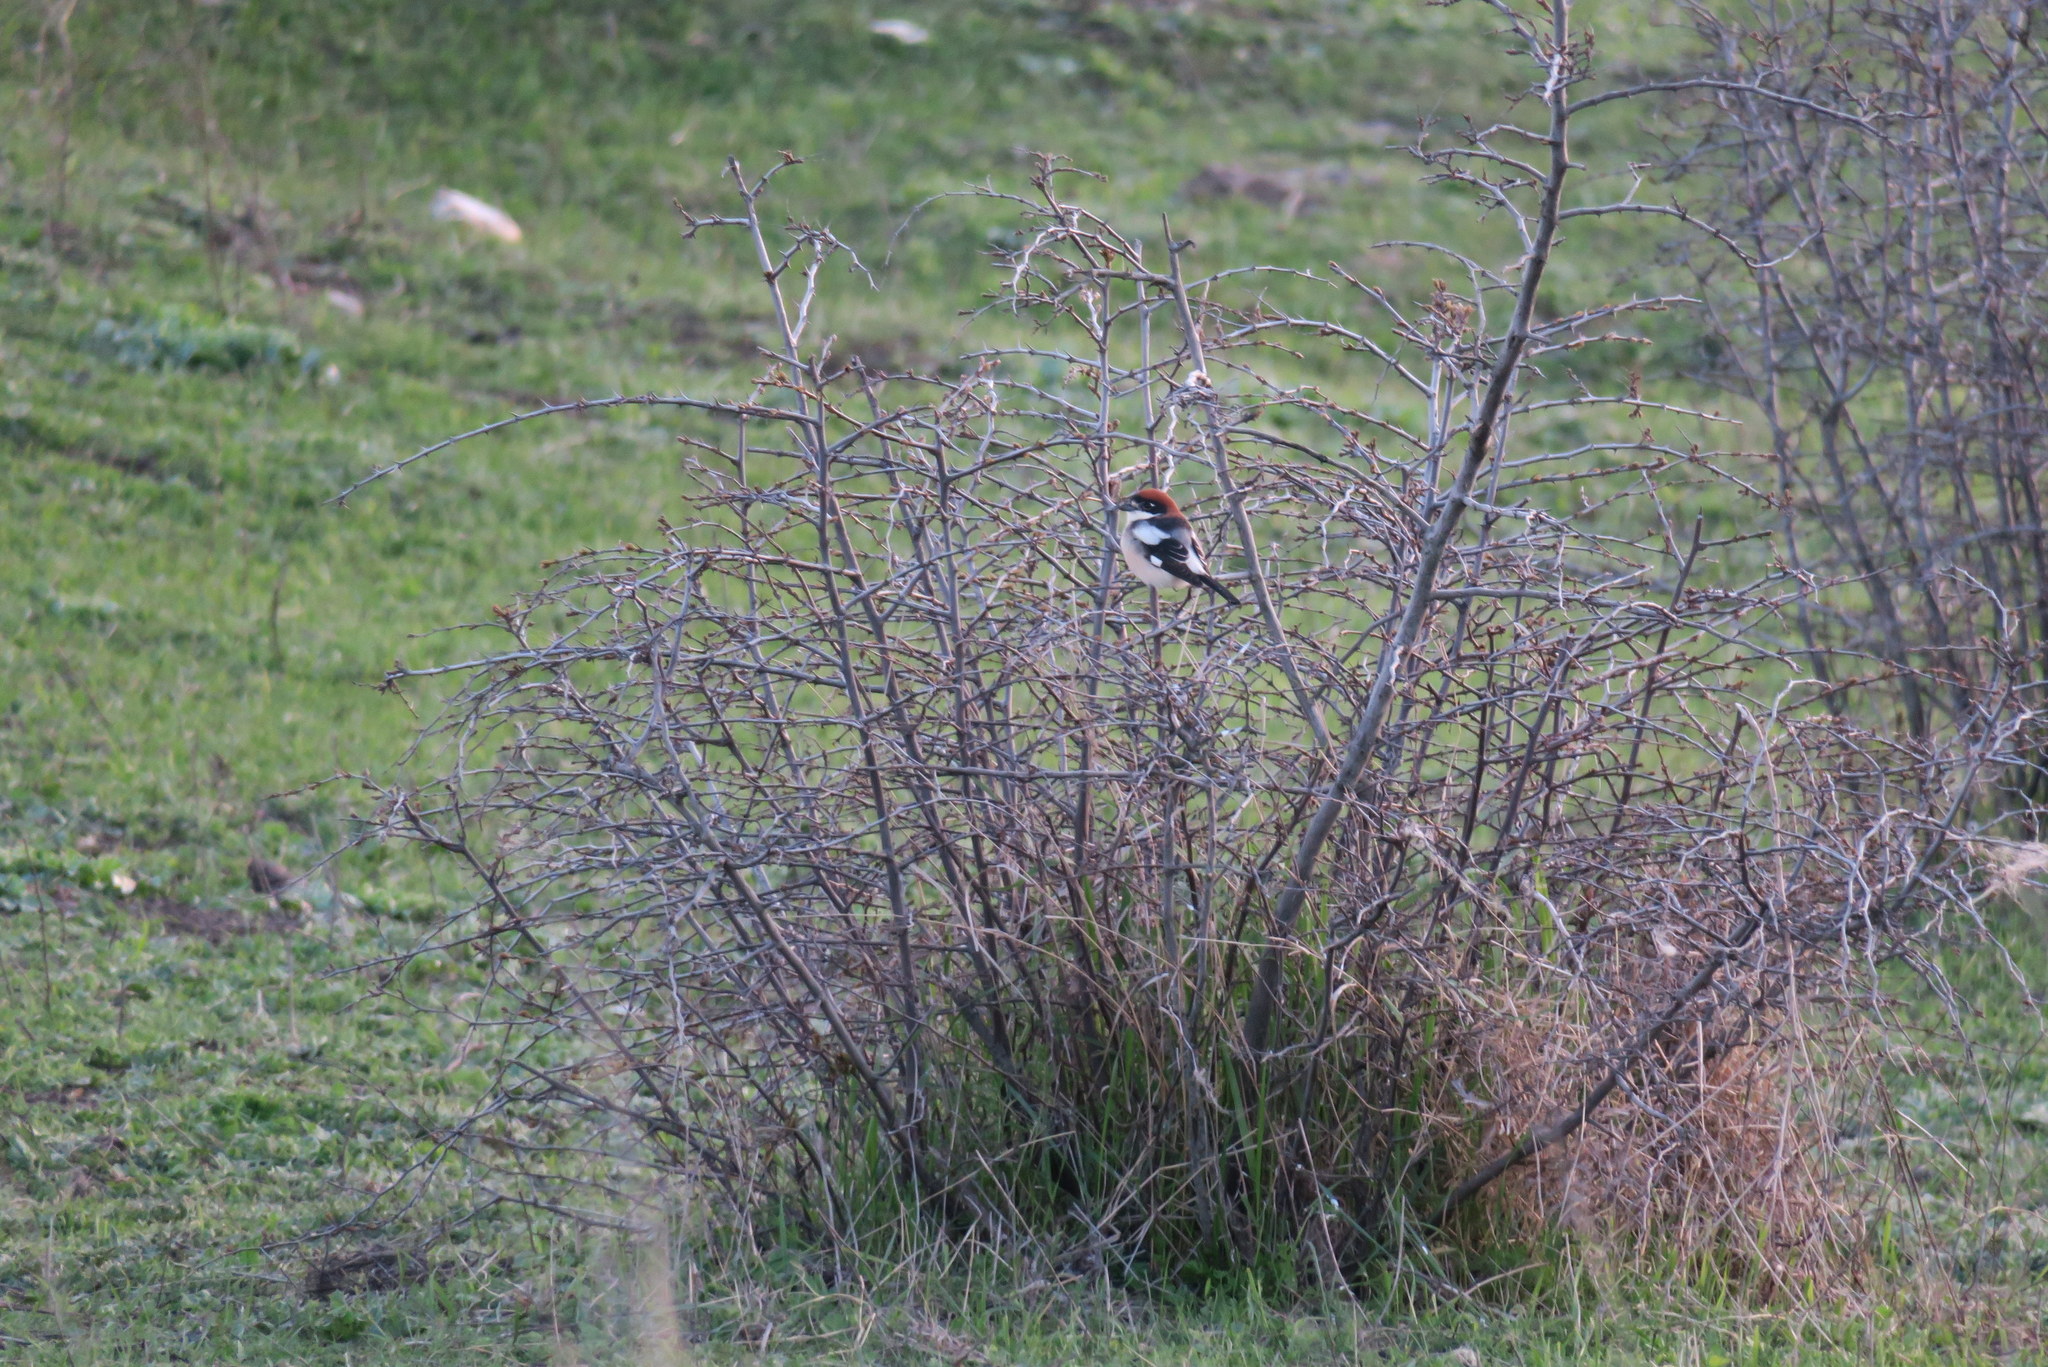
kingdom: Animalia
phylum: Chordata
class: Aves
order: Passeriformes
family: Laniidae
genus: Lanius
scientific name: Lanius senator
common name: Woodchat shrike
